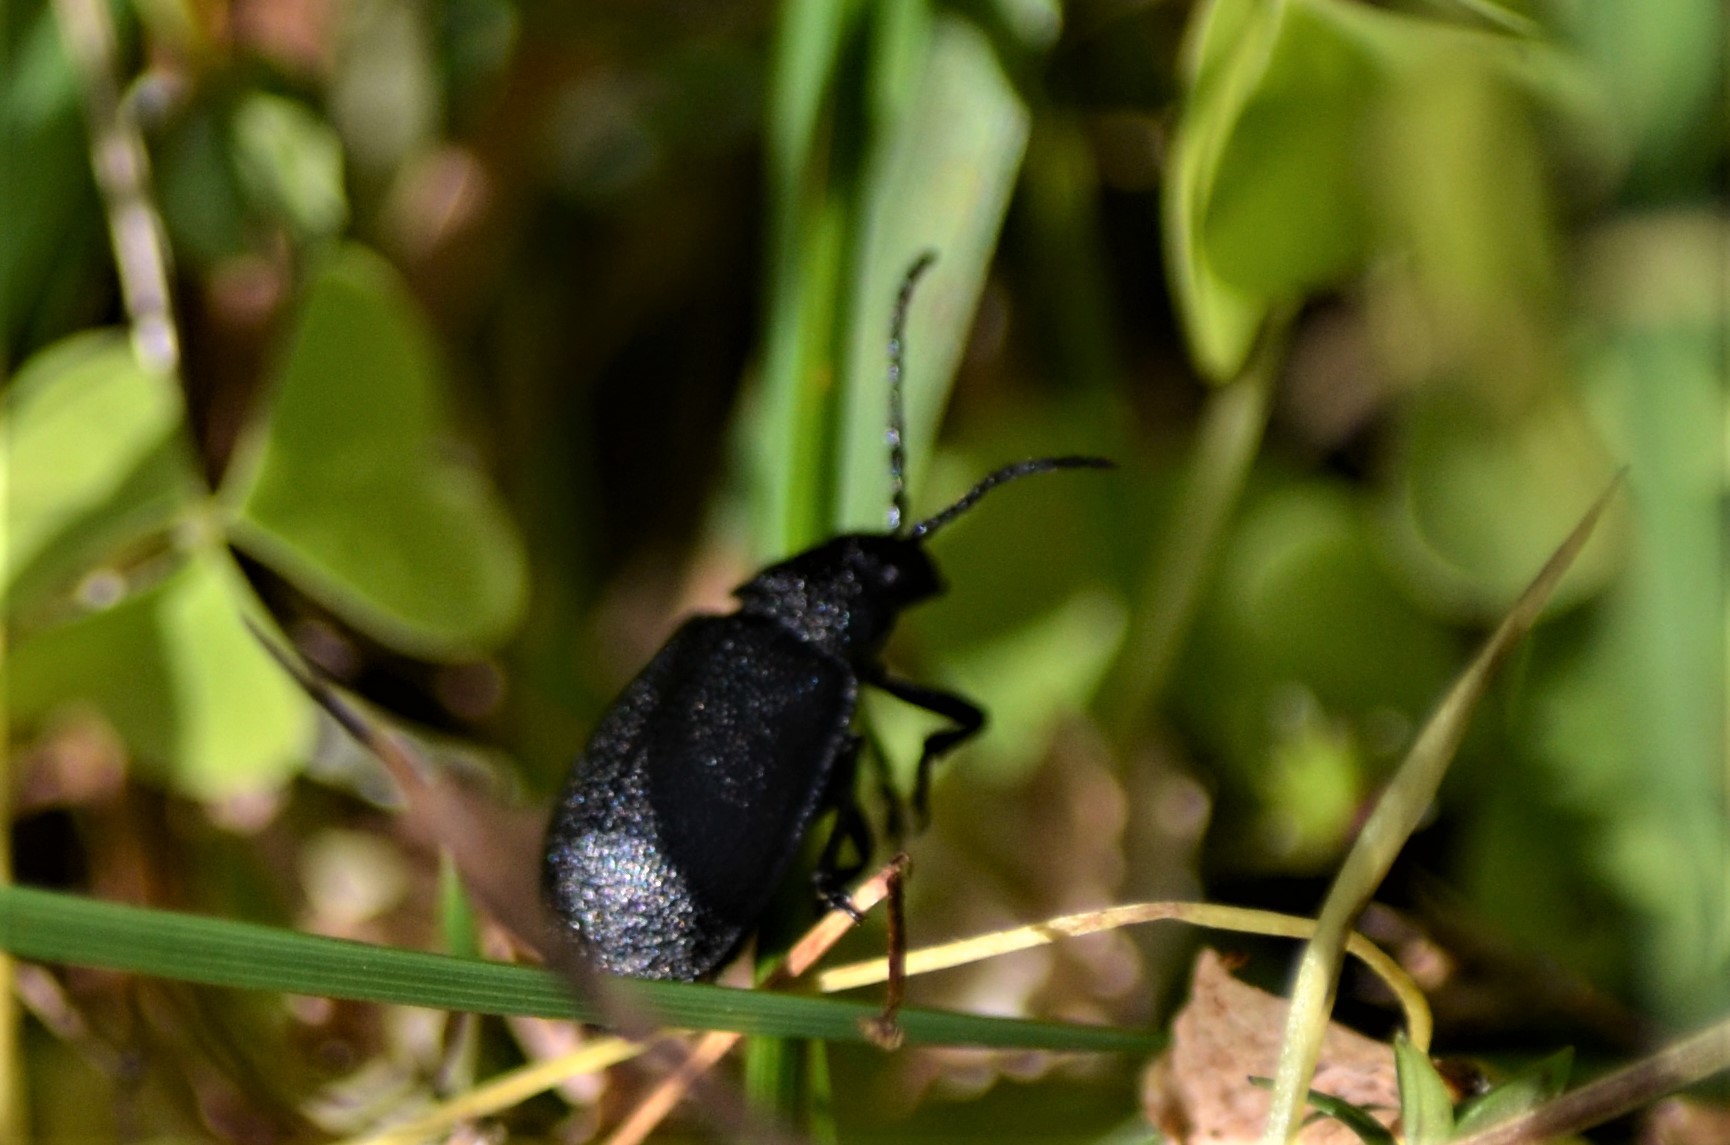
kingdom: Animalia
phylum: Arthropoda
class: Insecta
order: Coleoptera
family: Chrysomelidae
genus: Galeruca
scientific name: Galeruca tanaceti
